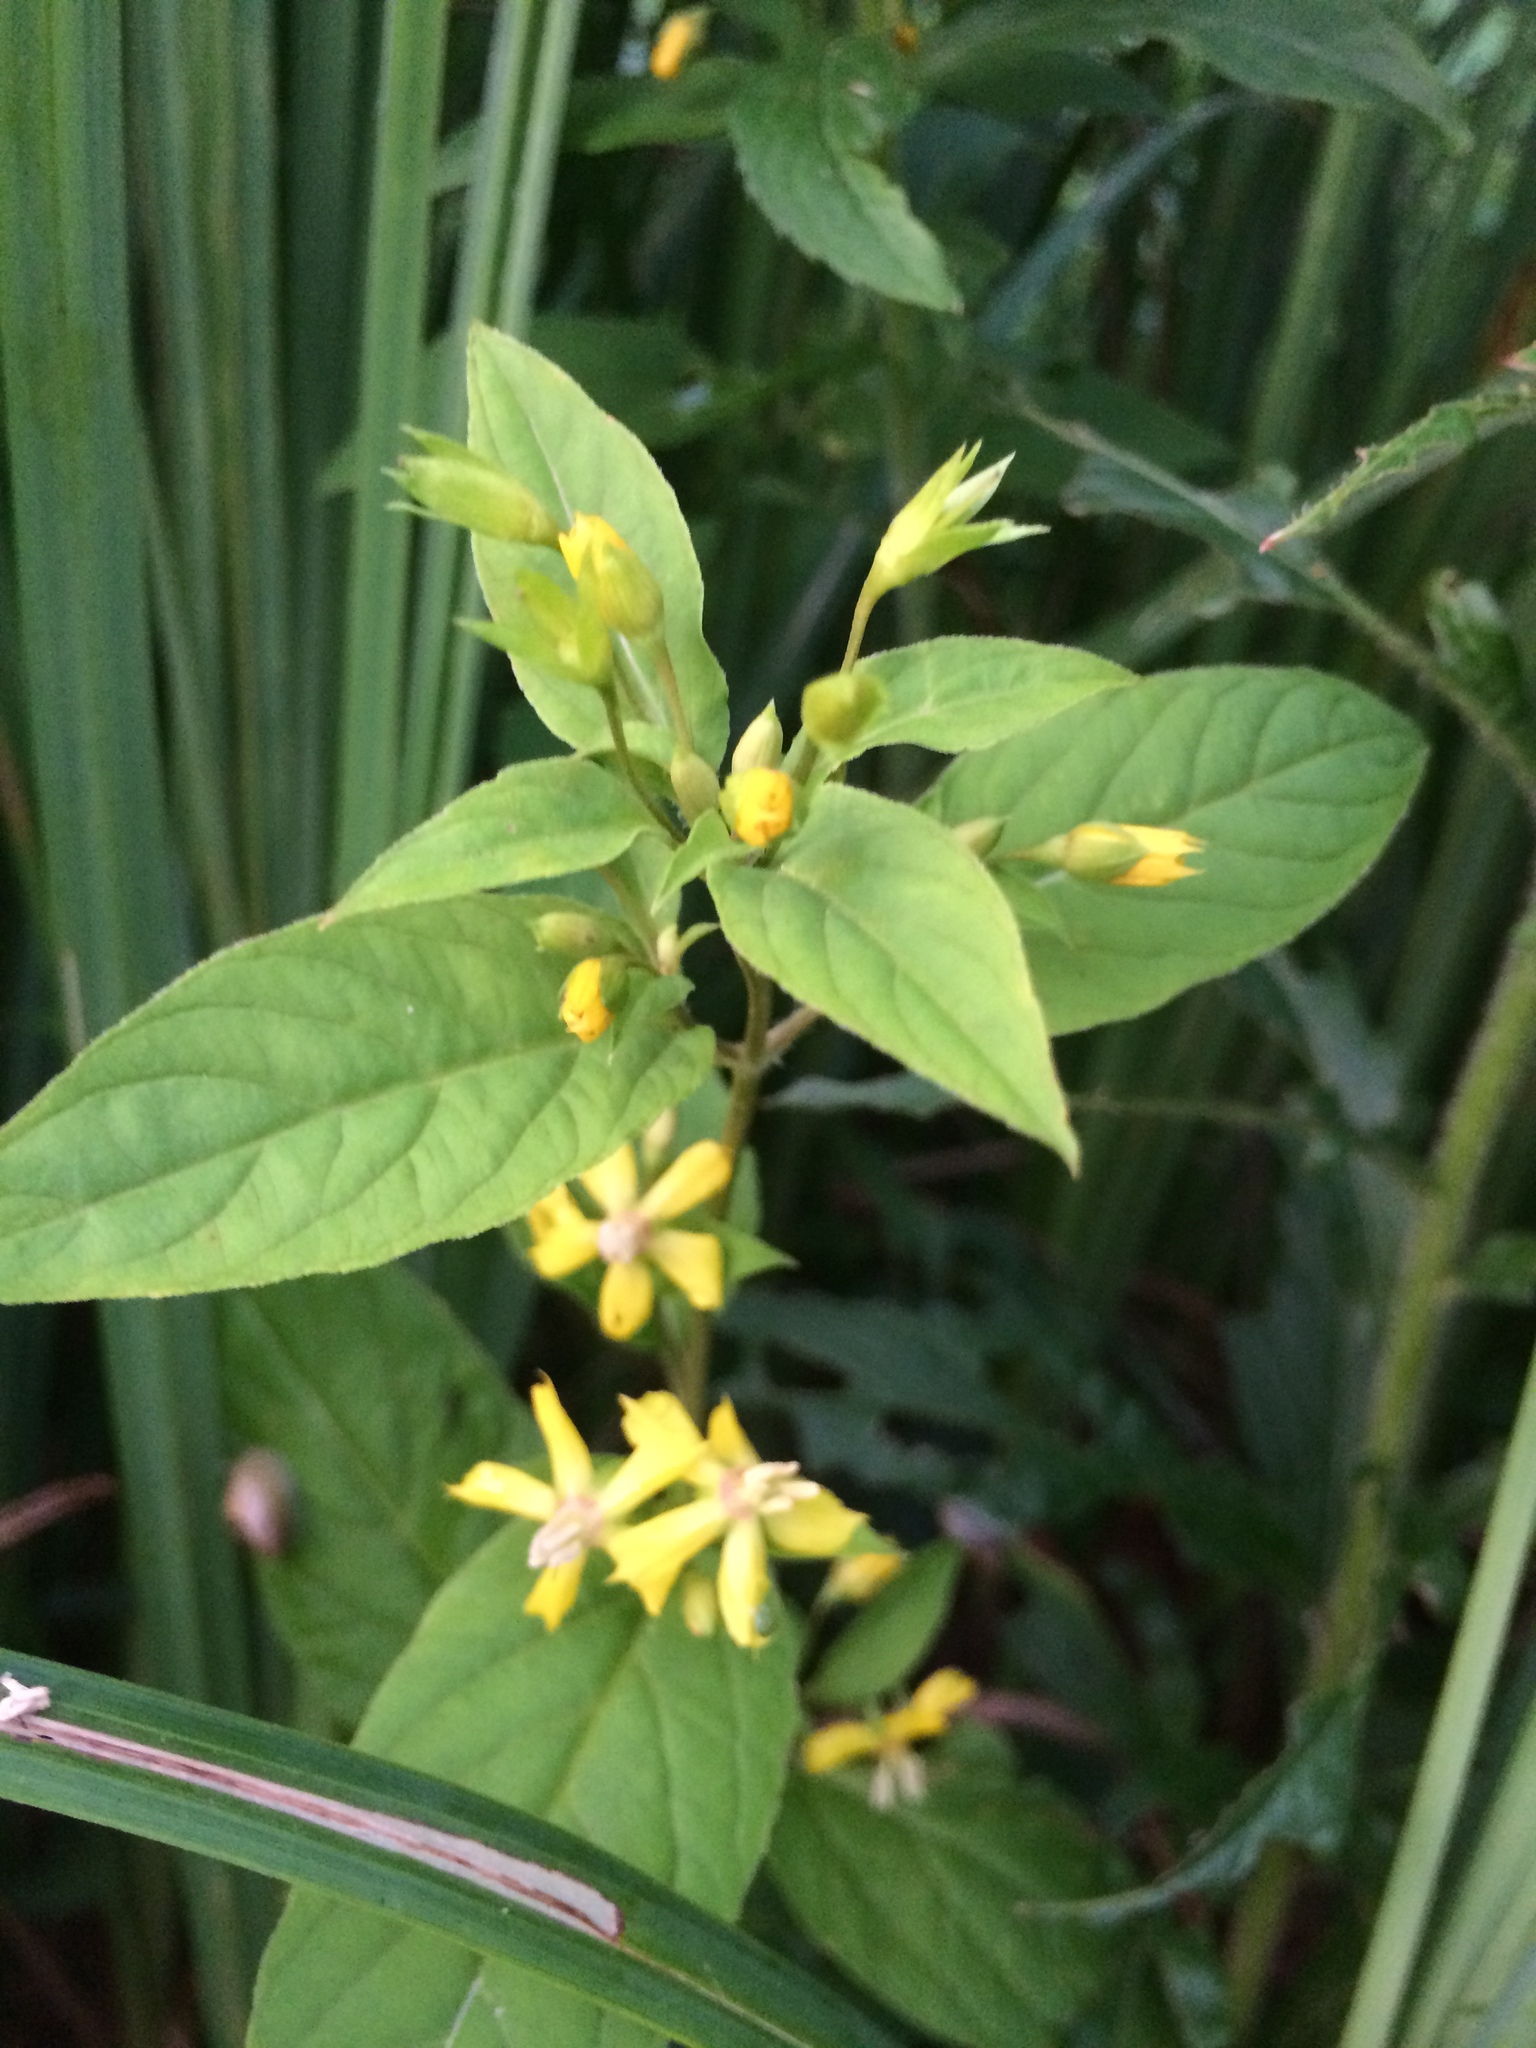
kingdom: Plantae
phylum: Tracheophyta
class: Magnoliopsida
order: Ericales
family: Primulaceae
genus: Lysimachia
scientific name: Lysimachia ciliata
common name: Fringed loosestrife
